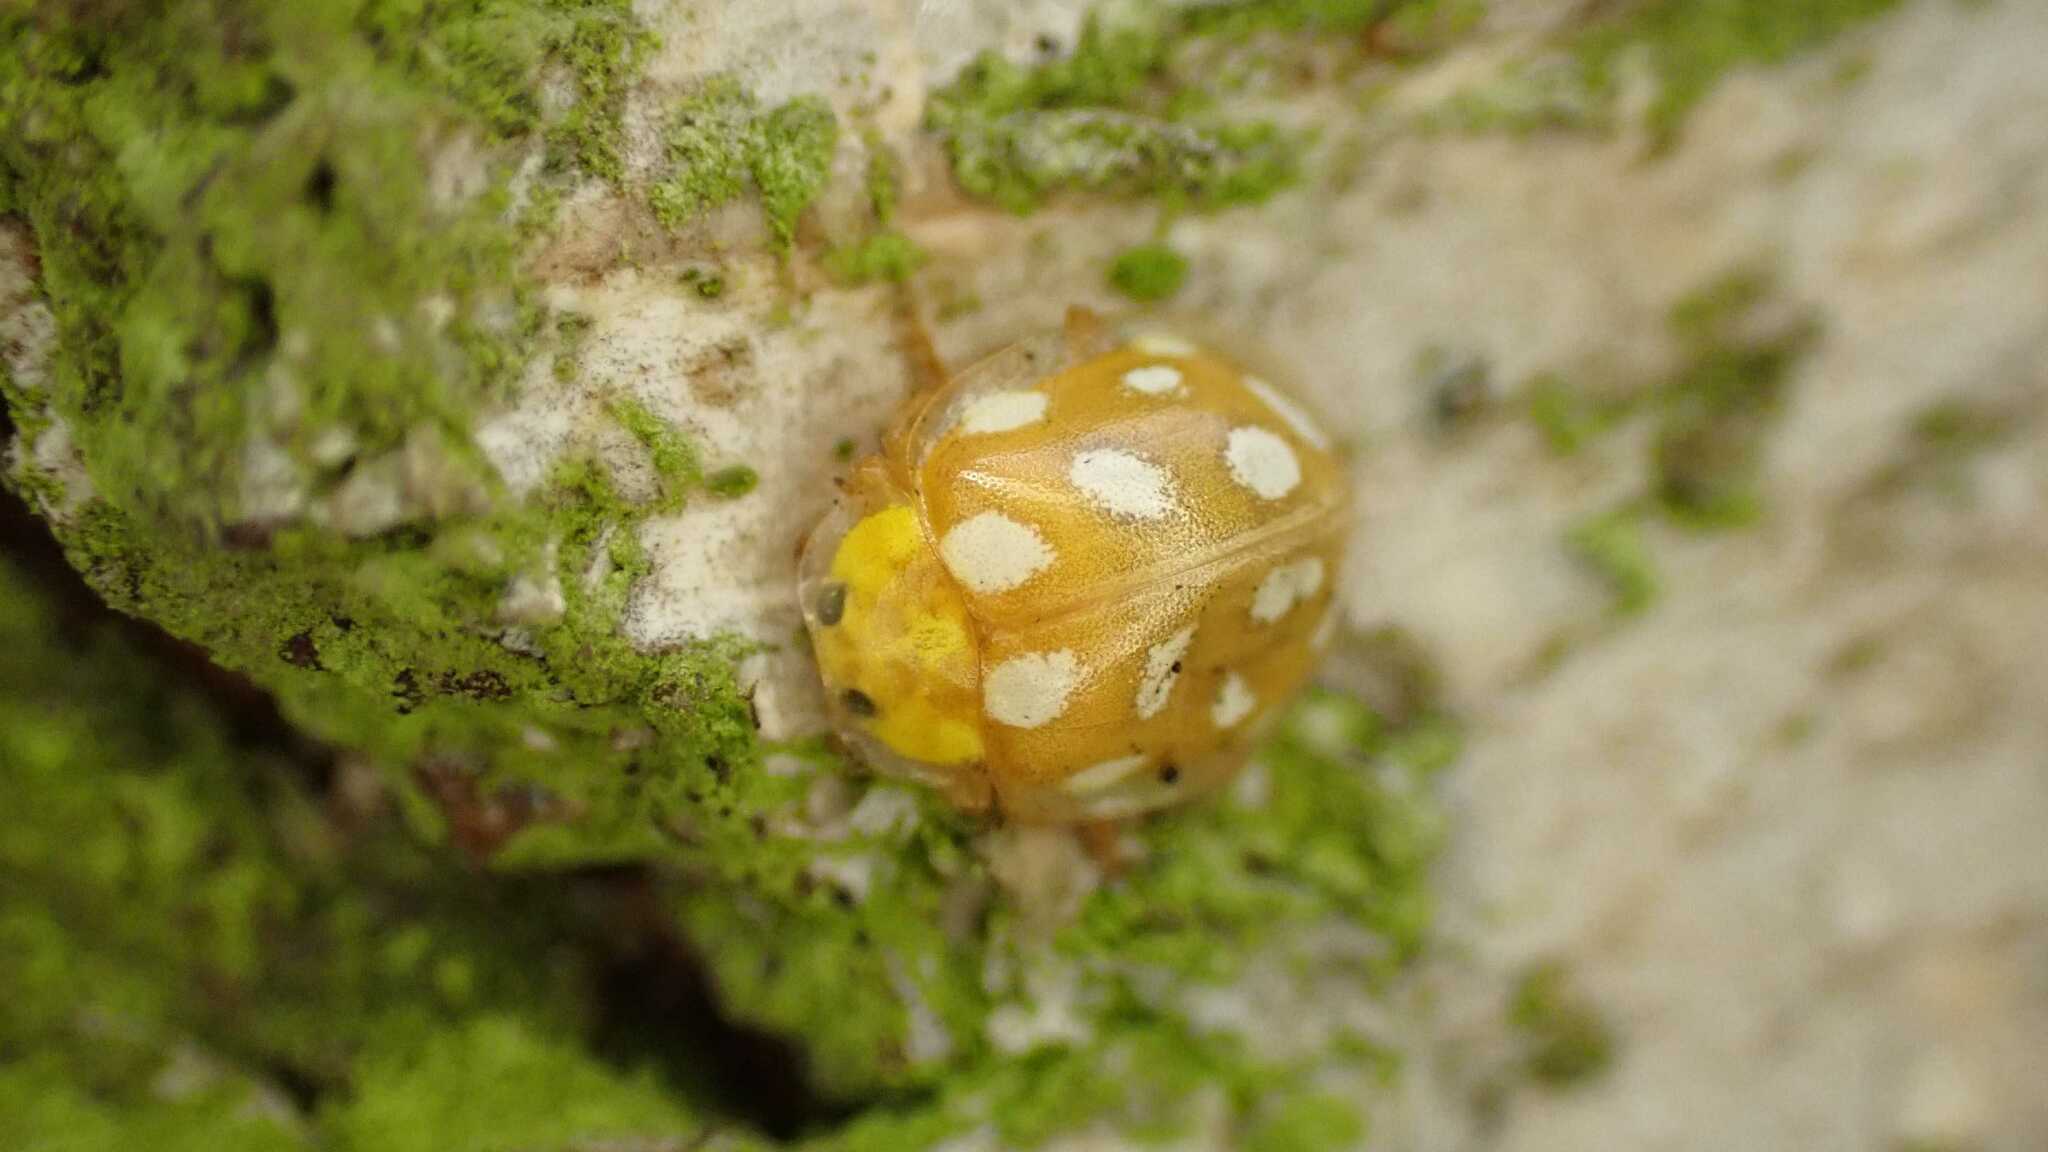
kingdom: Animalia
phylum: Arthropoda
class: Insecta
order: Coleoptera
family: Coccinellidae
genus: Halyzia
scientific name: Halyzia sedecimguttata
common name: Orange ladybird
